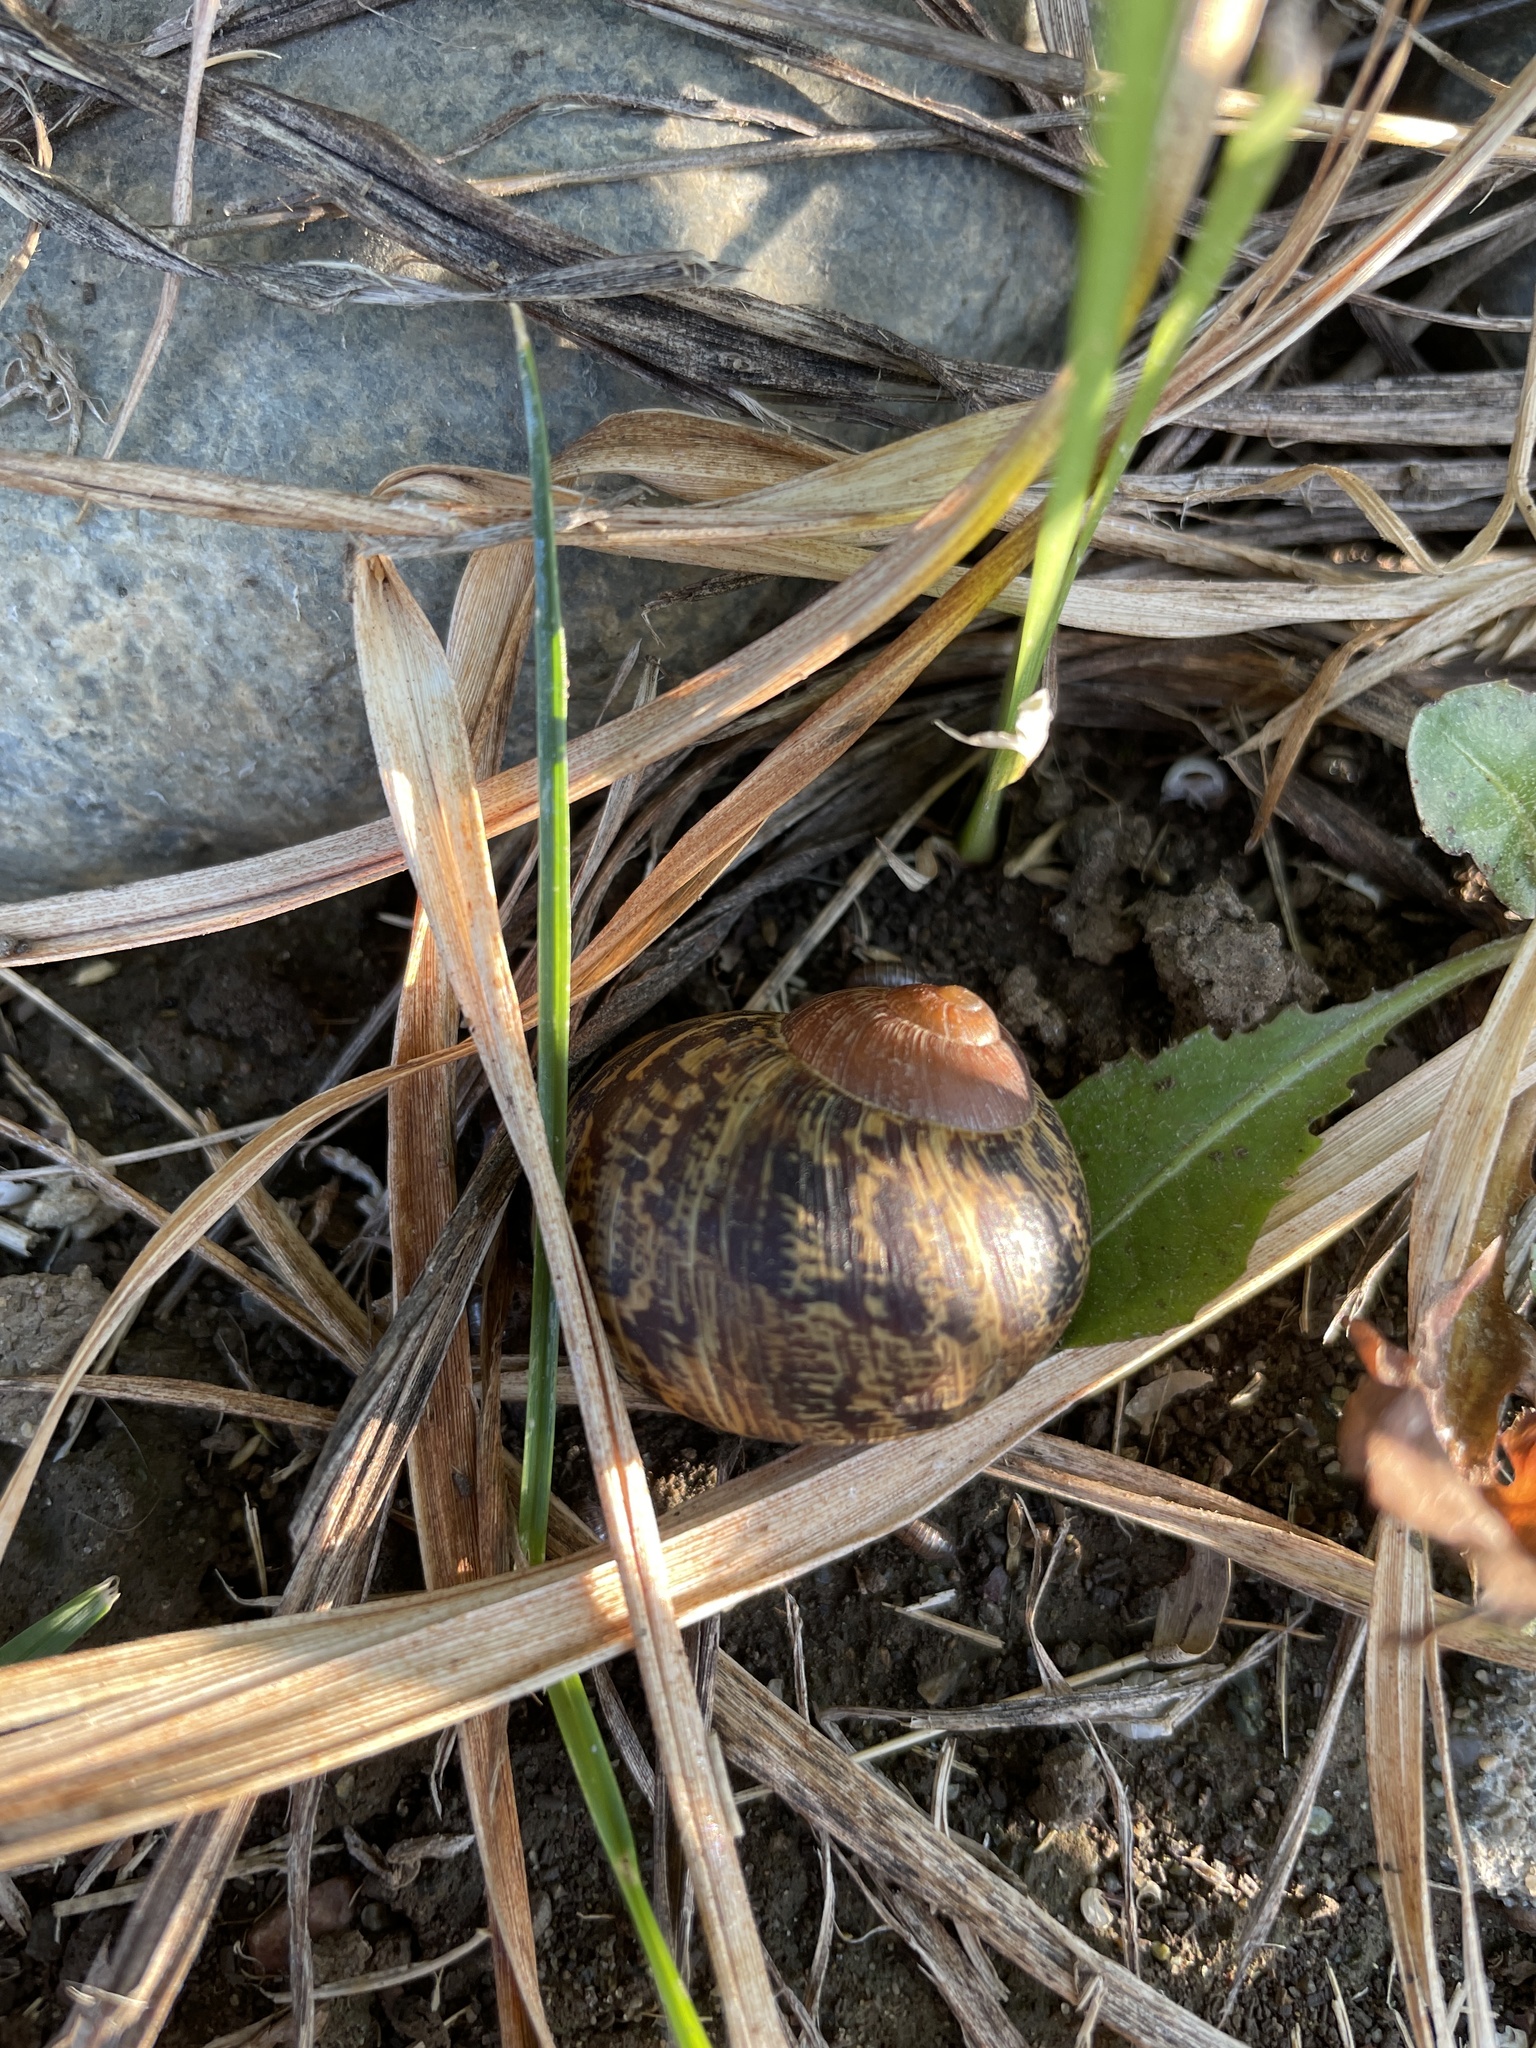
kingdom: Animalia
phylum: Mollusca
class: Gastropoda
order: Stylommatophora
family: Helicidae
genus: Cornu
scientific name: Cornu aspersum
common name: Brown garden snail
